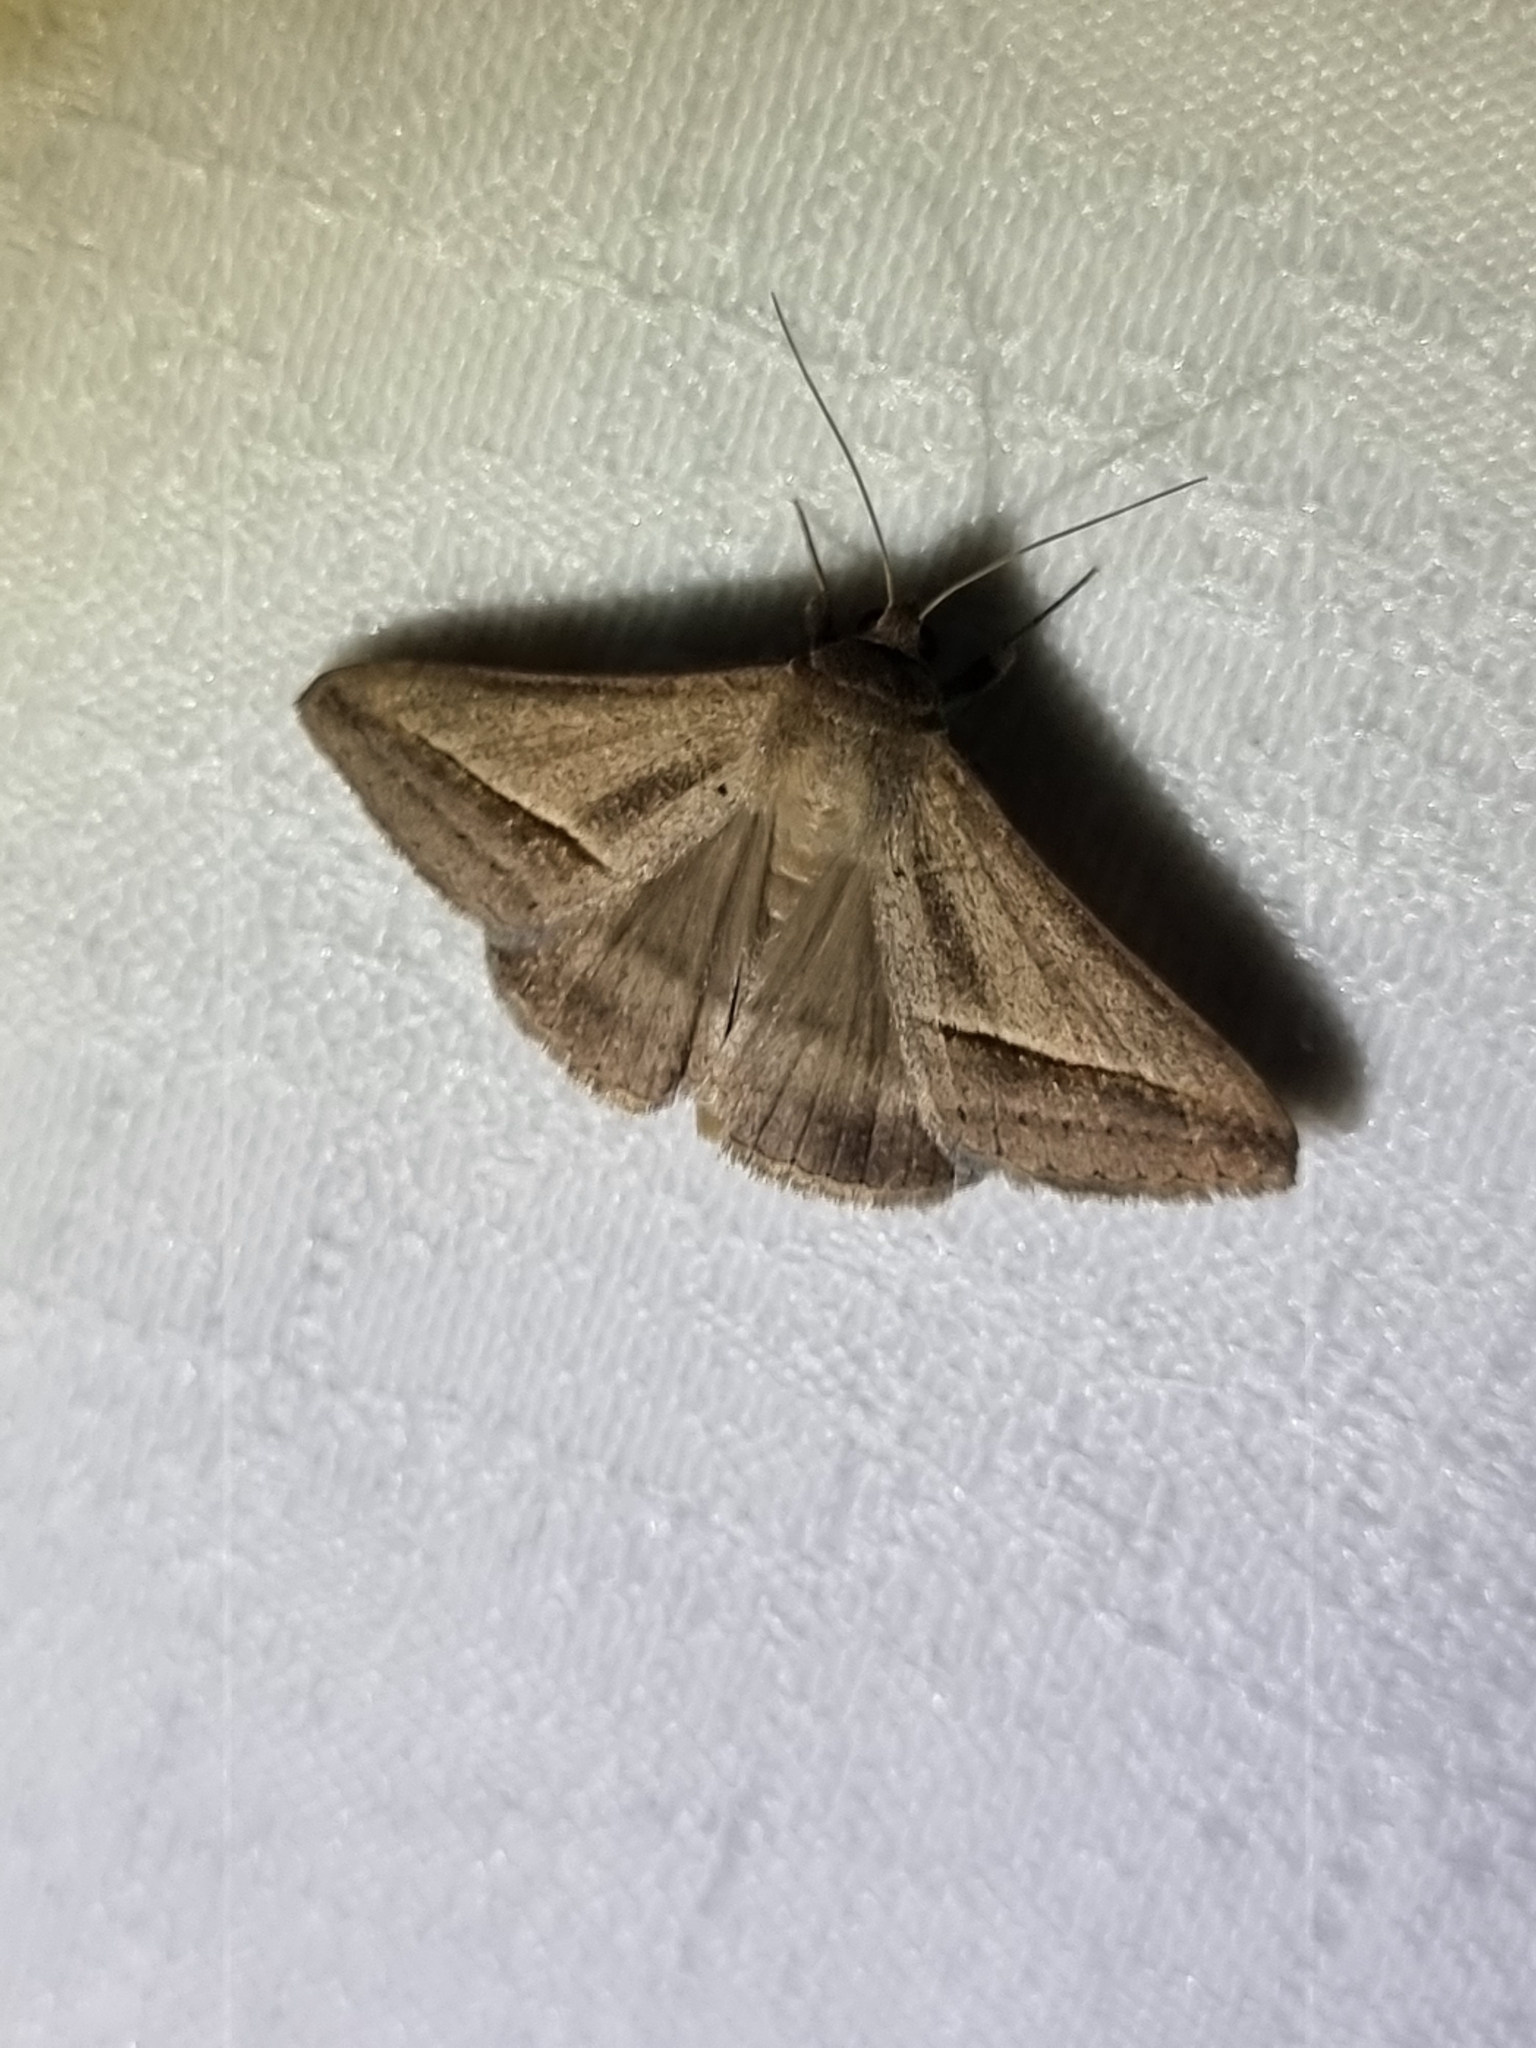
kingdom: Animalia
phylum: Arthropoda
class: Insecta
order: Lepidoptera
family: Erebidae
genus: Mocis
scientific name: Mocis frugalis
